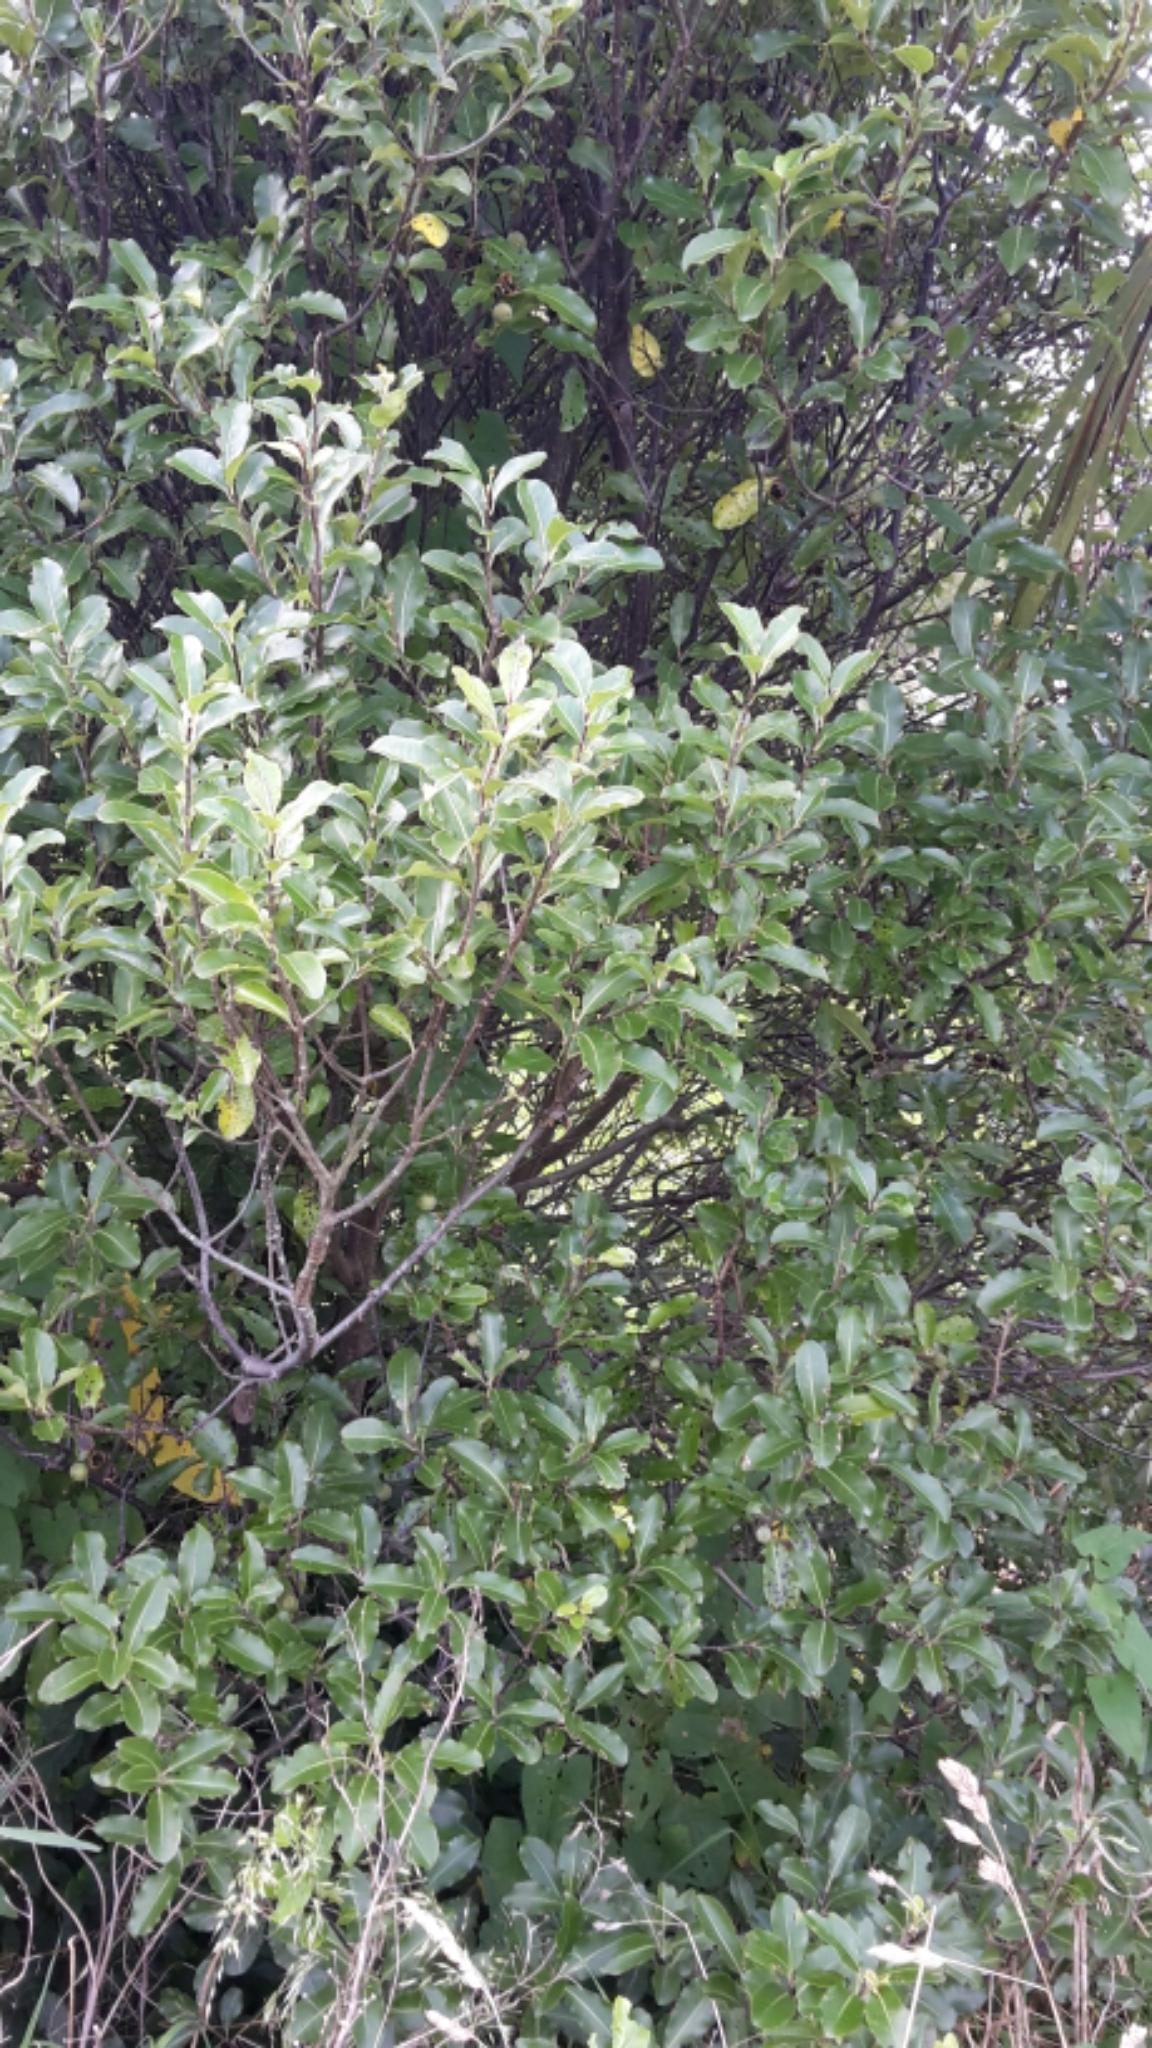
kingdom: Plantae
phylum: Tracheophyta
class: Magnoliopsida
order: Apiales
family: Pittosporaceae
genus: Pittosporum
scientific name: Pittosporum tenuifolium
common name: Kohuhu
